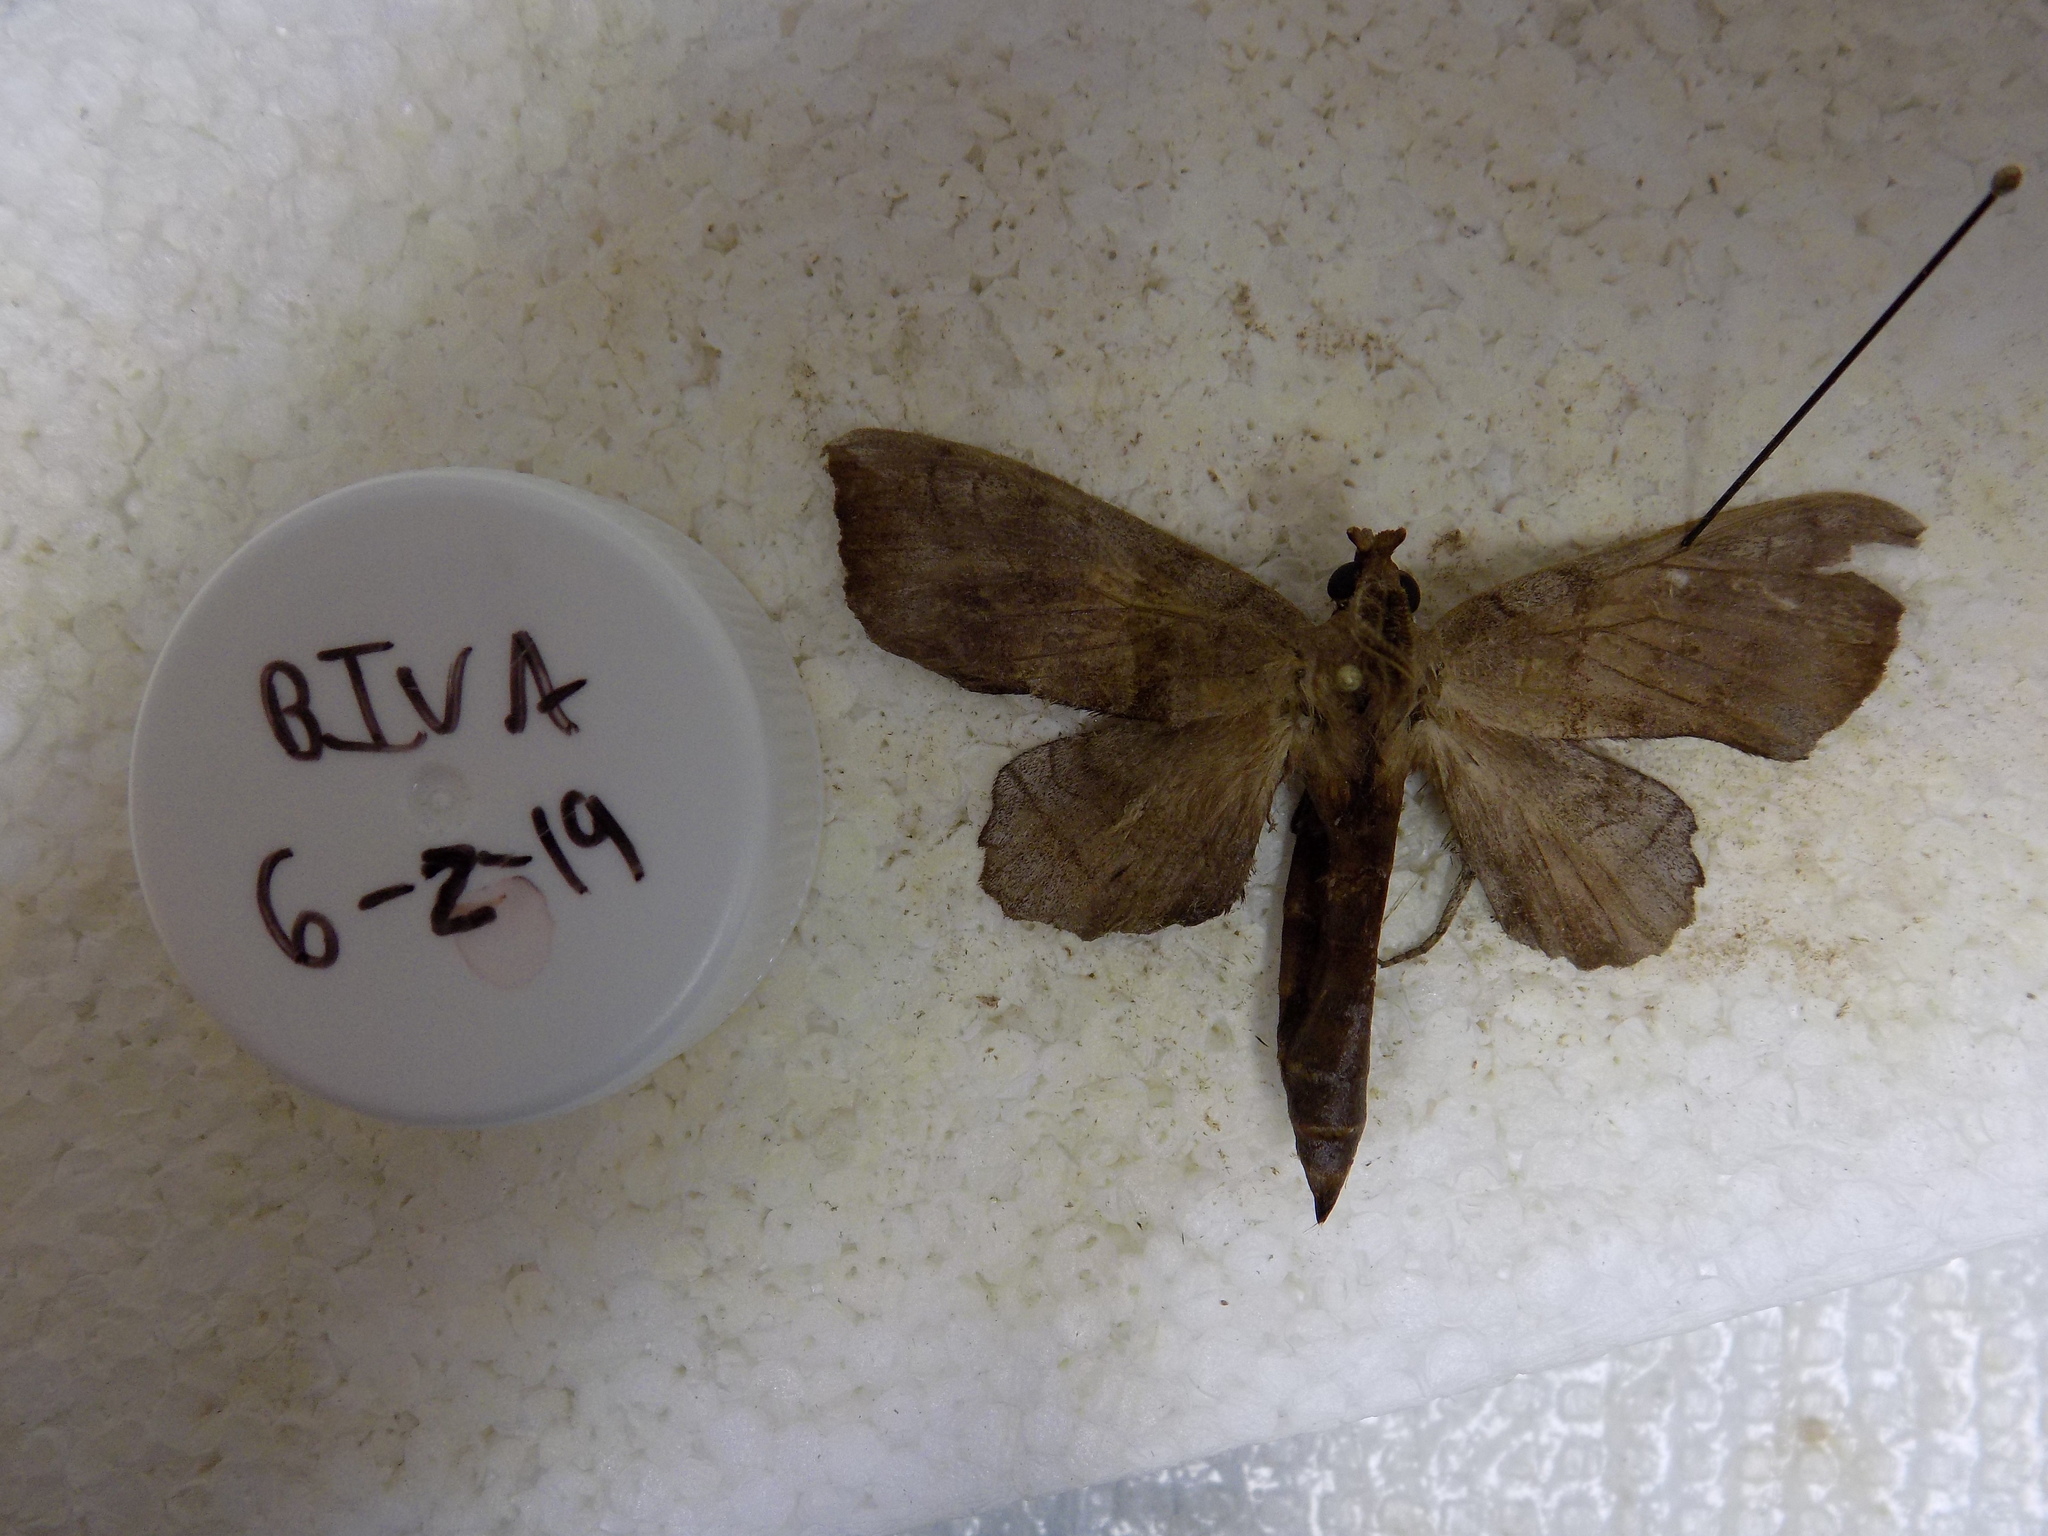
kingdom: Animalia
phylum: Arthropoda
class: Insecta
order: Lepidoptera
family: Sphingidae
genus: Amorpha
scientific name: Amorpha juglandis
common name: Walnut sphinx
